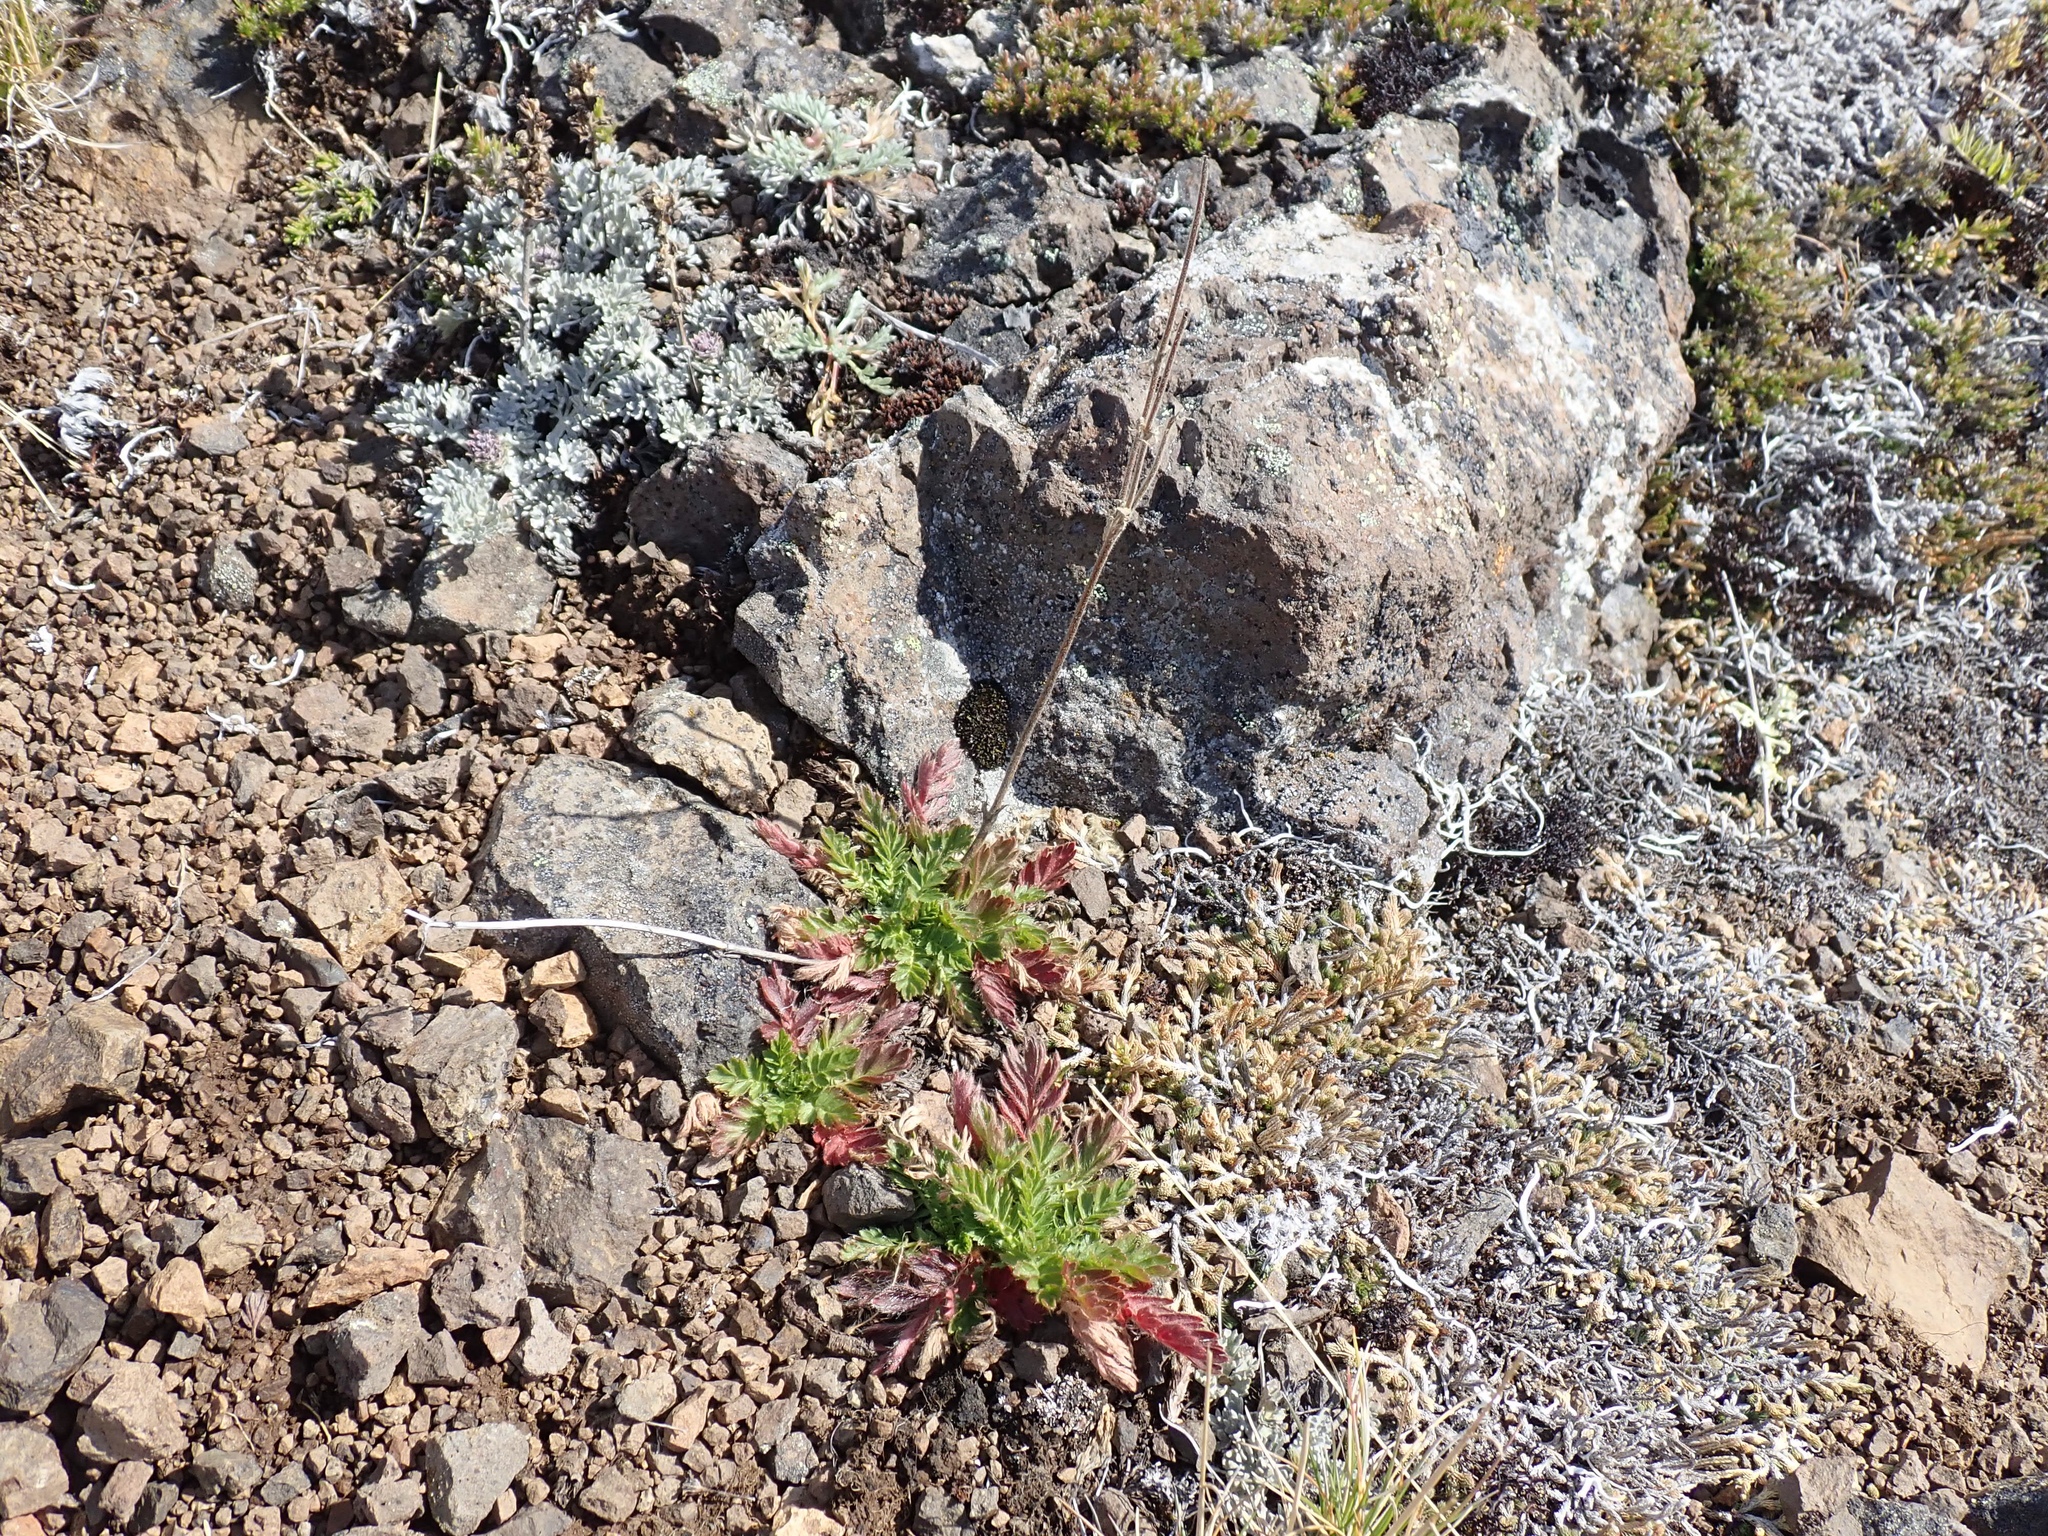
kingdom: Plantae
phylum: Tracheophyta
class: Magnoliopsida
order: Rosales
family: Rosaceae
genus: Geum
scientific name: Geum triflorum
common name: Old man's whiskers
